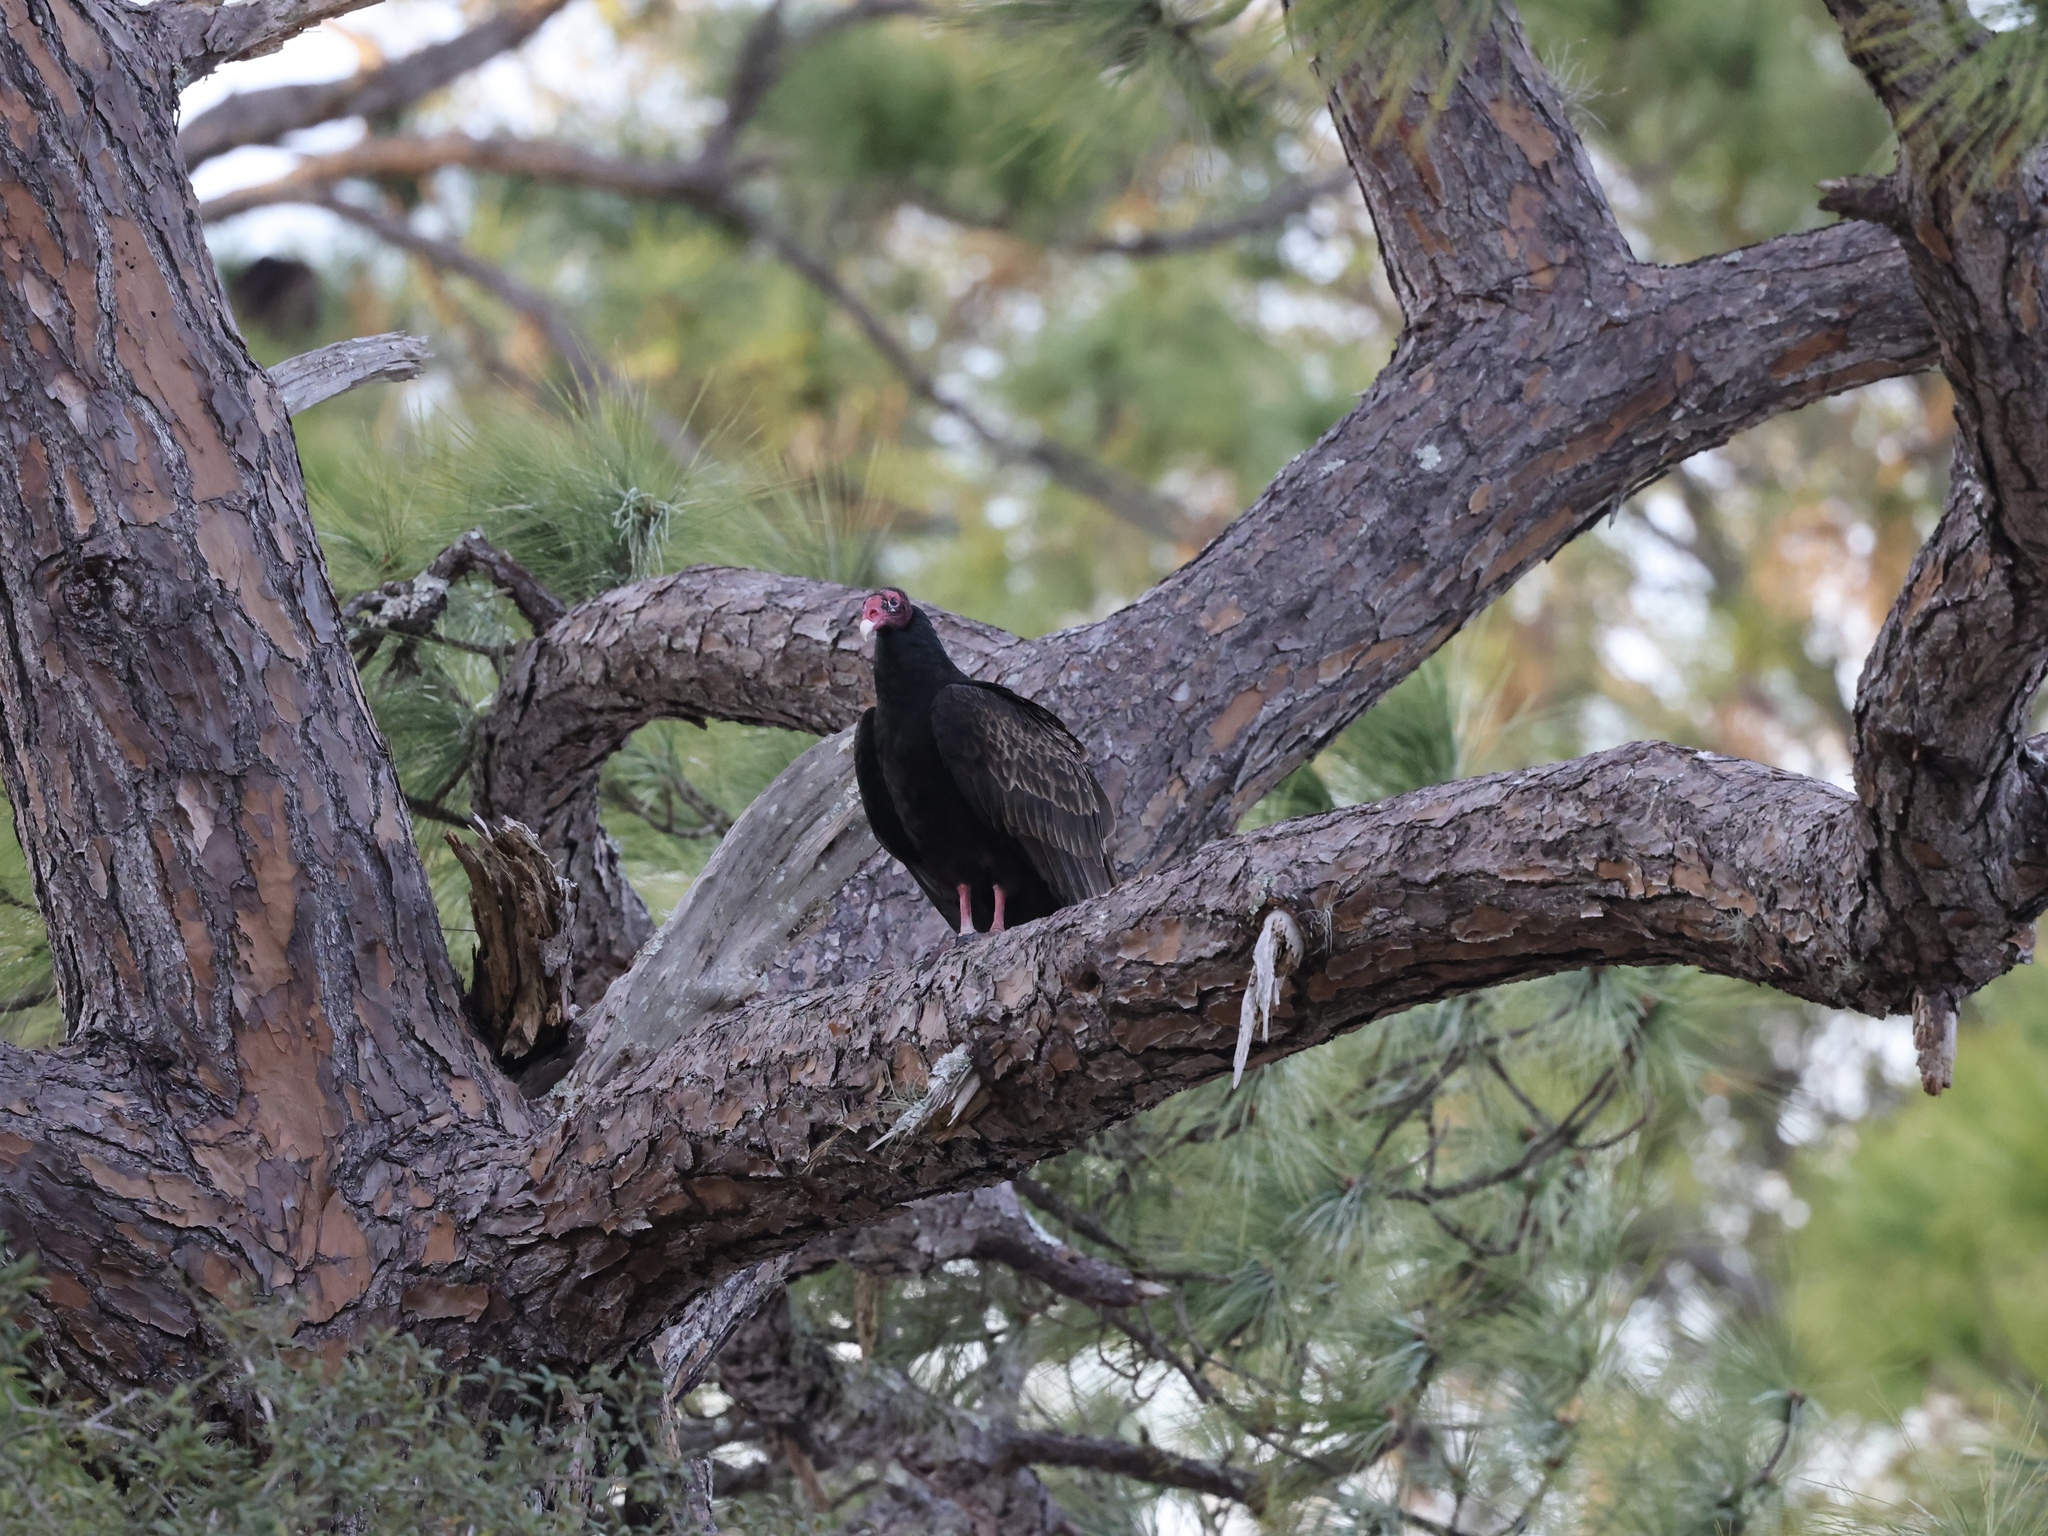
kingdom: Animalia
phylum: Chordata
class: Aves
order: Accipitriformes
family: Cathartidae
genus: Cathartes
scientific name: Cathartes aura
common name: Turkey vulture
